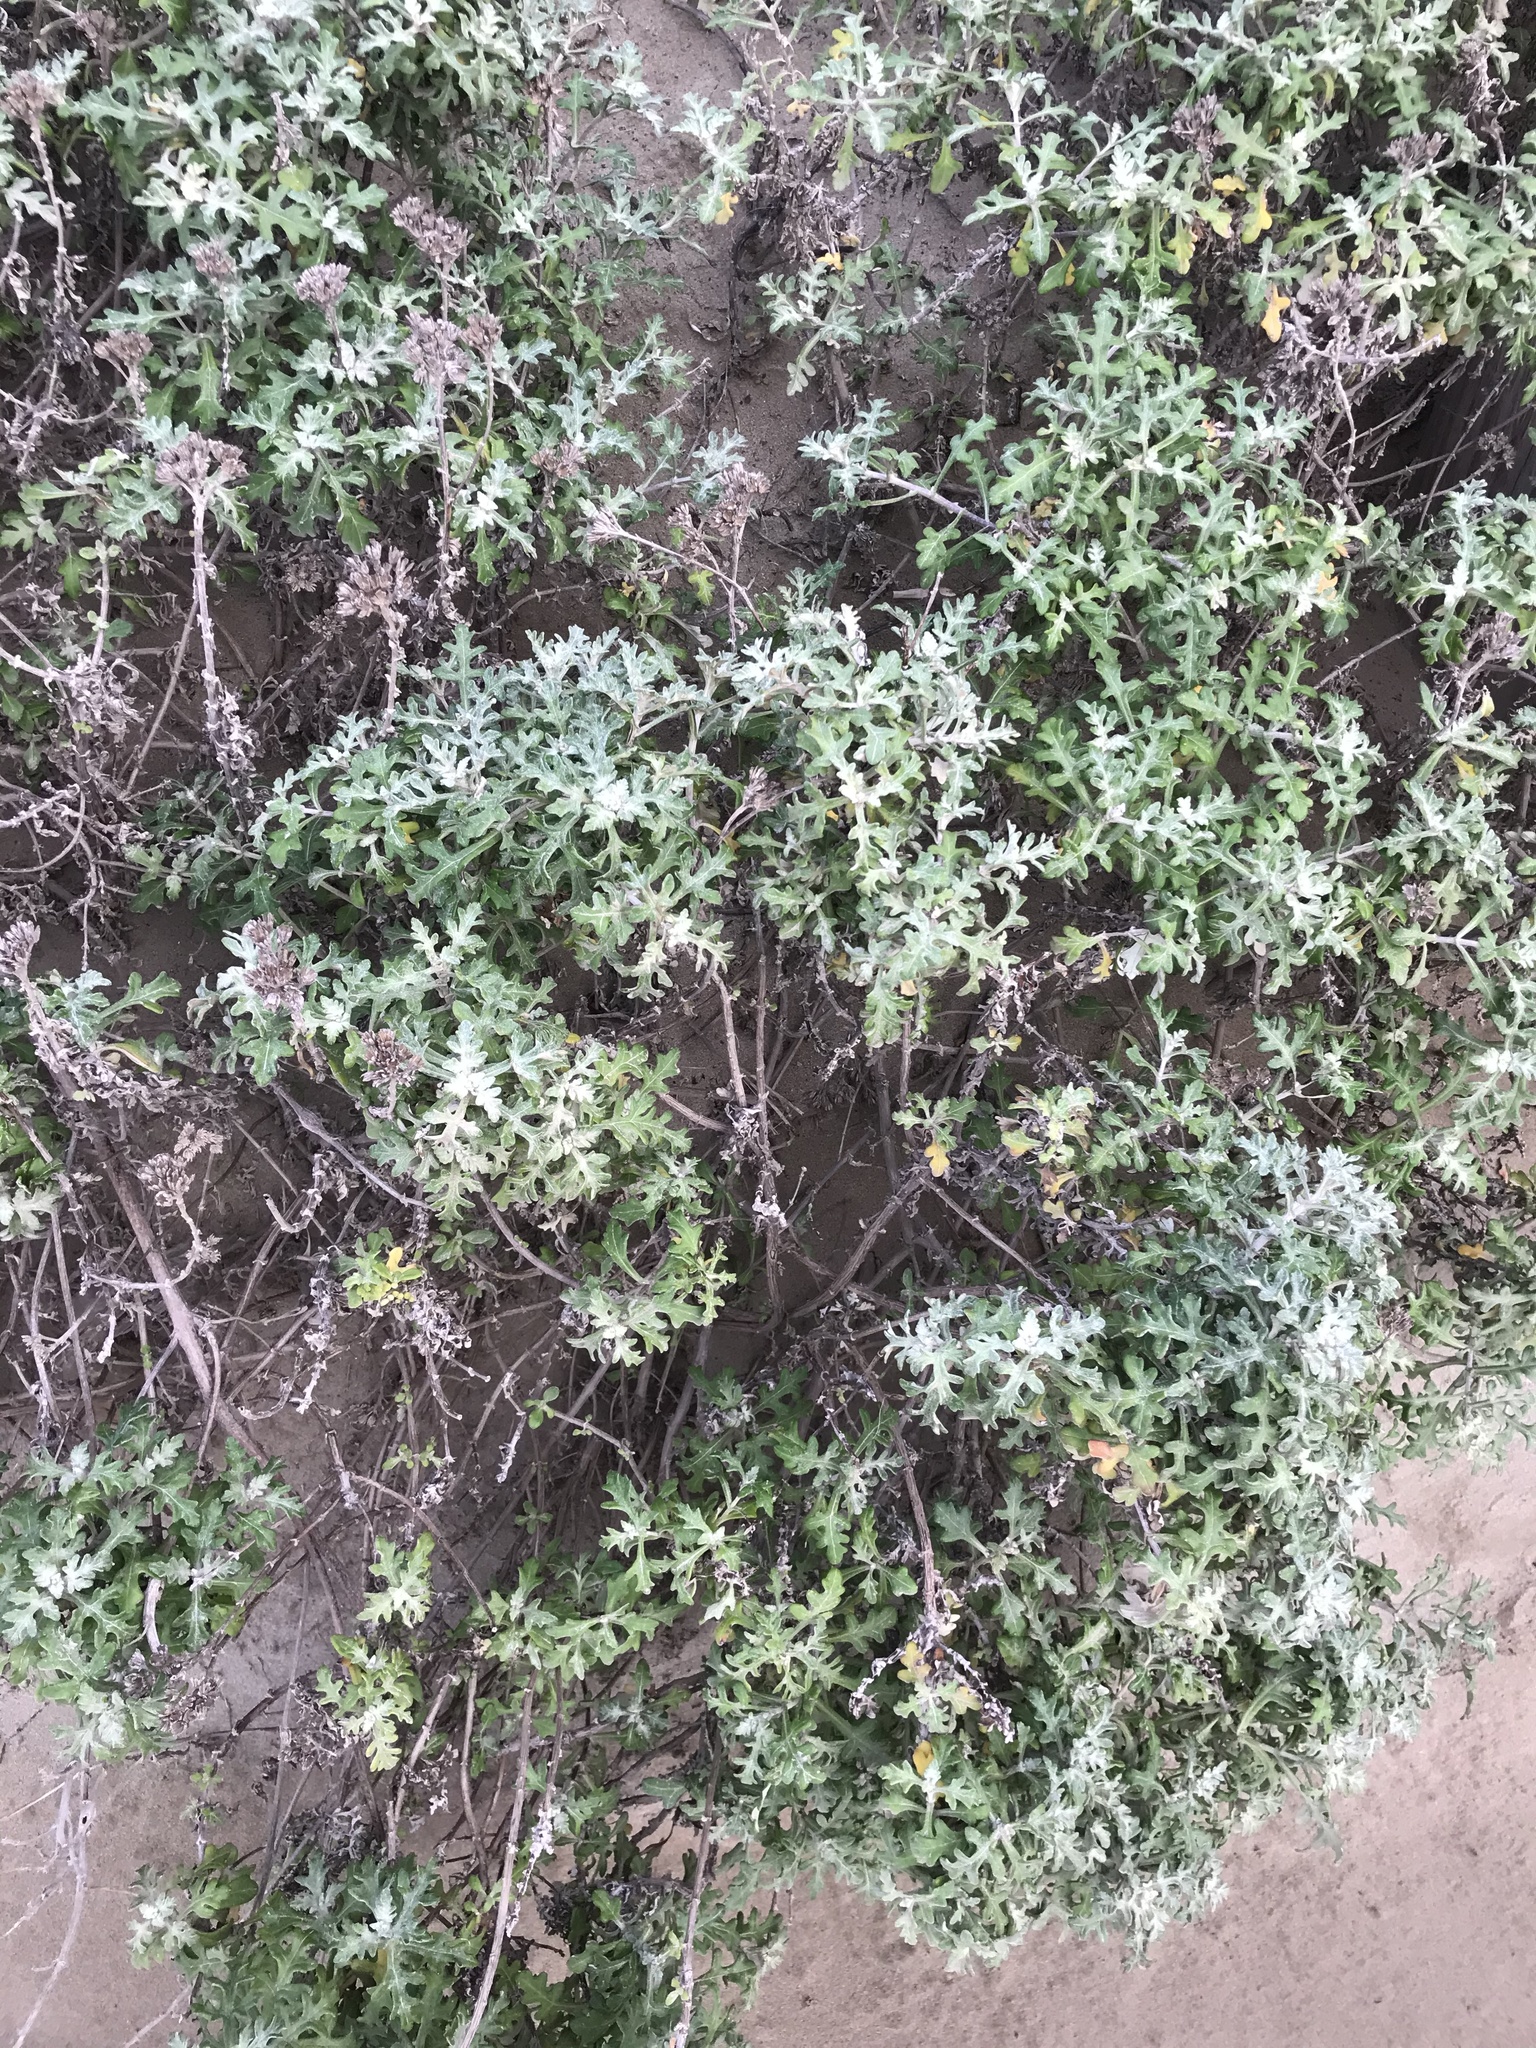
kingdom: Plantae
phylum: Tracheophyta
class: Magnoliopsida
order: Asterales
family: Asteraceae
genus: Eriophyllum
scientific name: Eriophyllum staechadifolium
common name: Lizardtail
